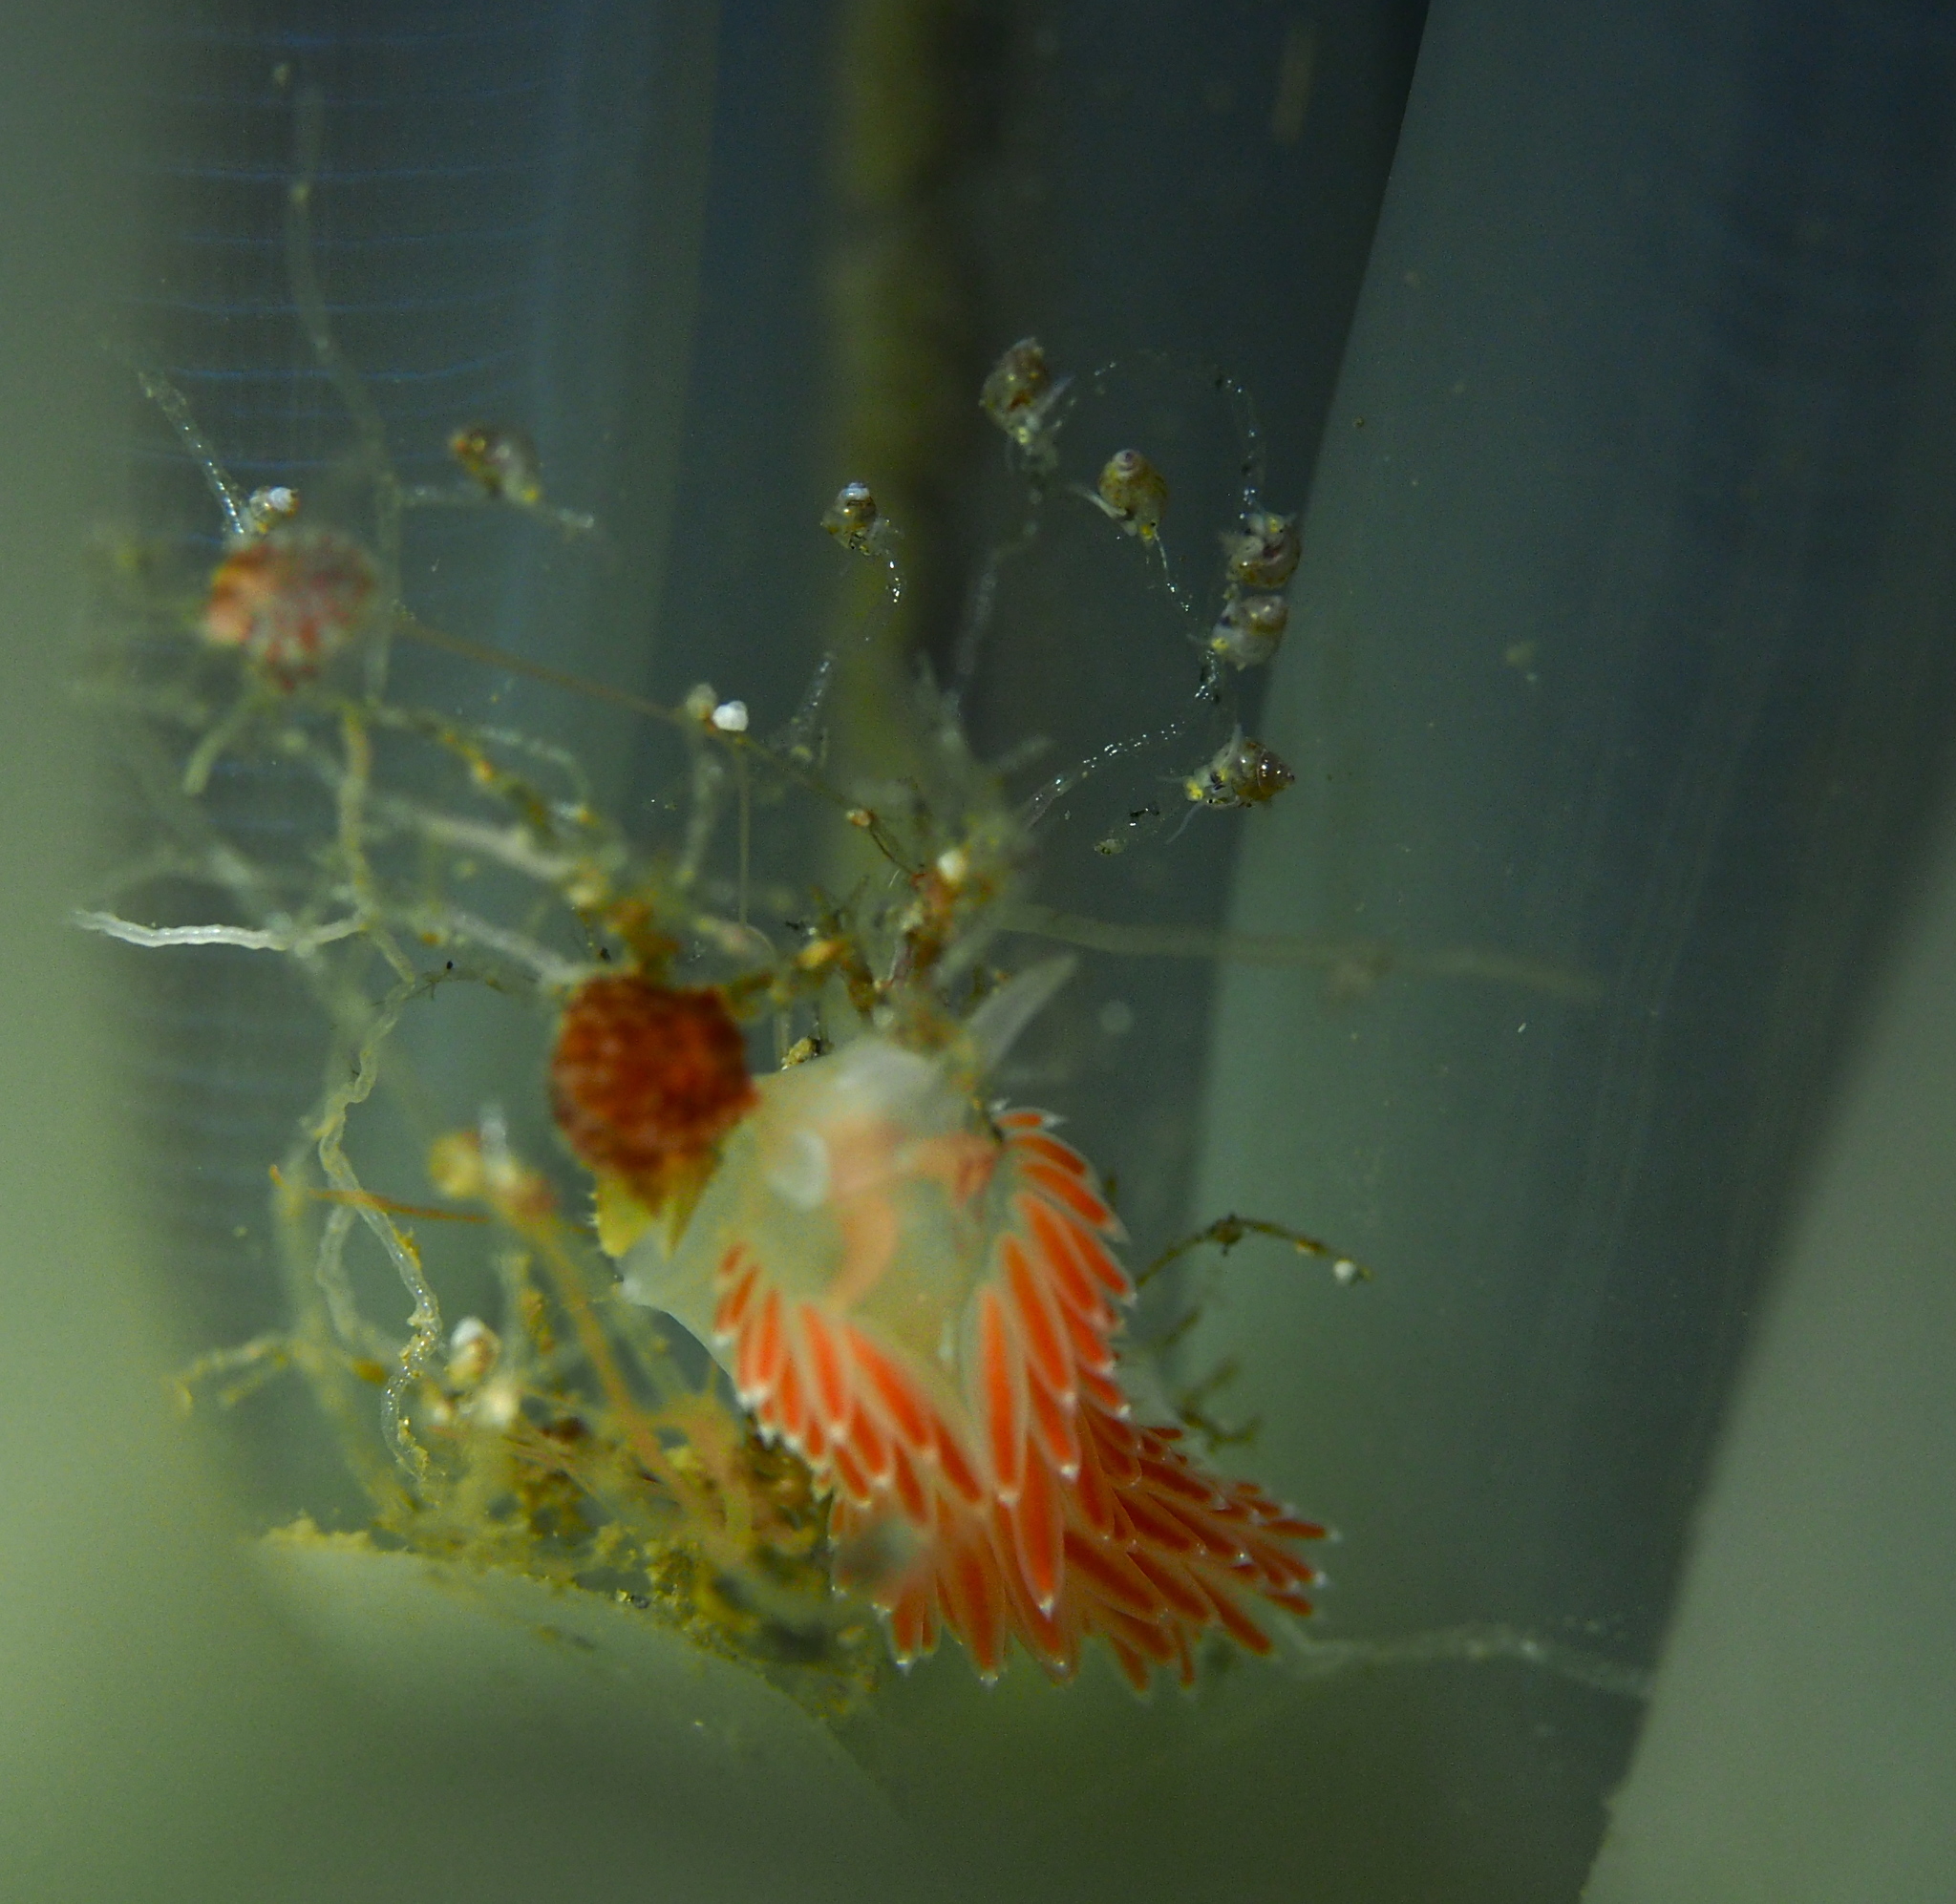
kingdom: Animalia
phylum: Mollusca
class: Gastropoda
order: Nudibranchia
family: Coryphellidae
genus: Coryphella
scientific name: Coryphella verrucosa
